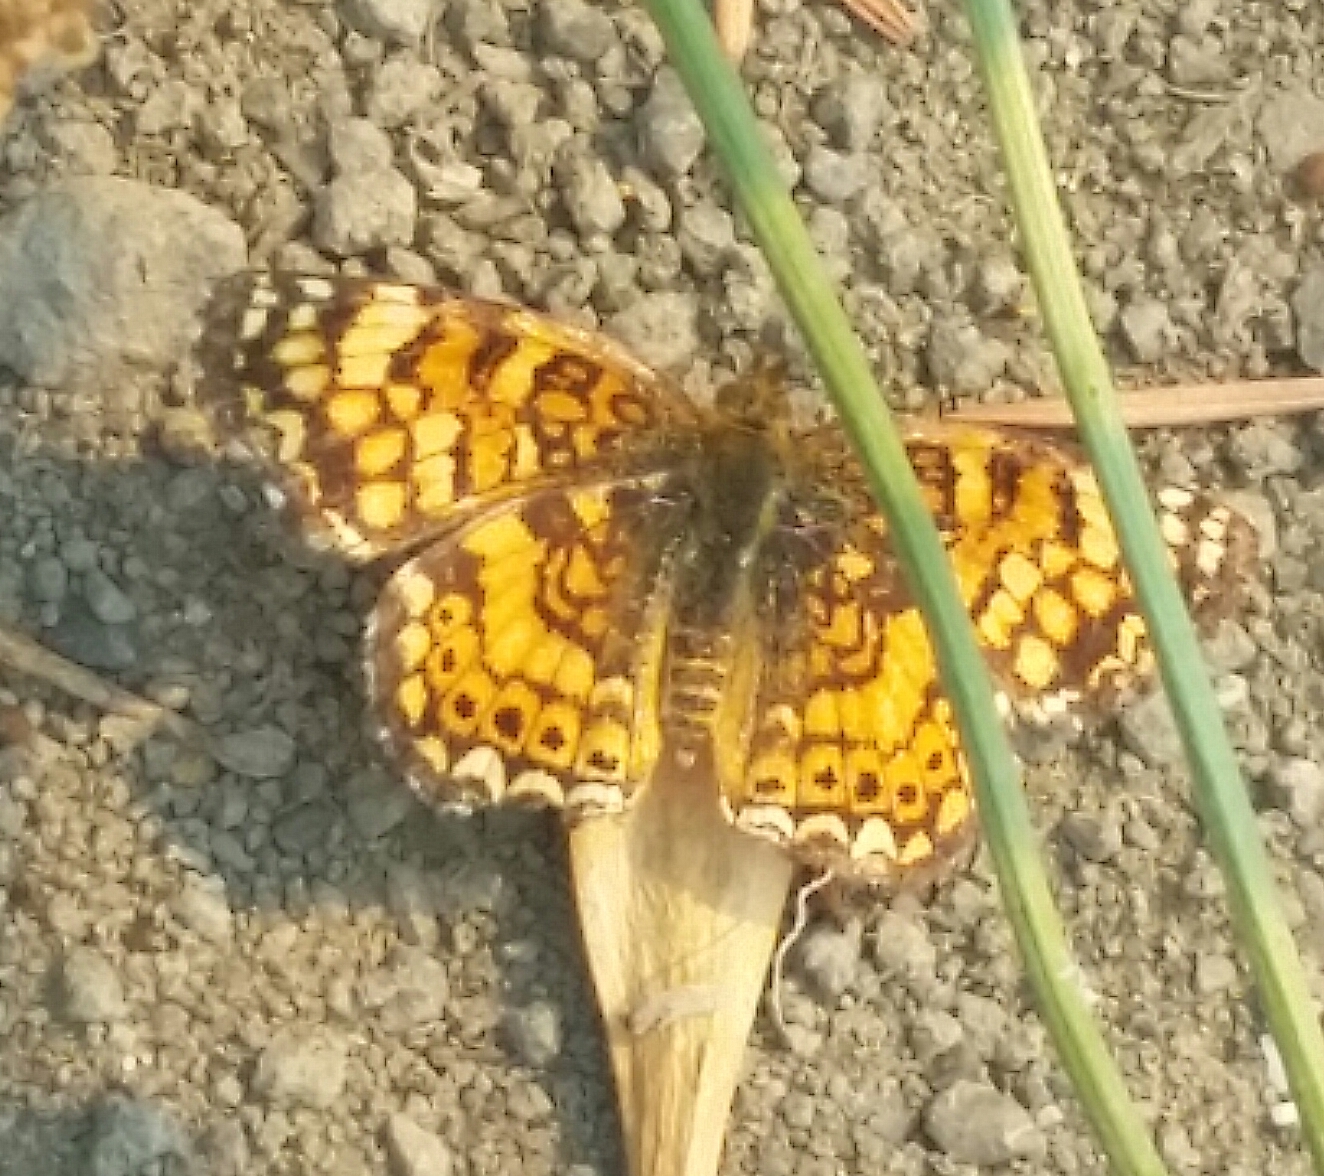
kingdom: Animalia
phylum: Arthropoda
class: Insecta
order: Lepidoptera
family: Nymphalidae
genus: Eresia
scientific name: Eresia aveyrona
